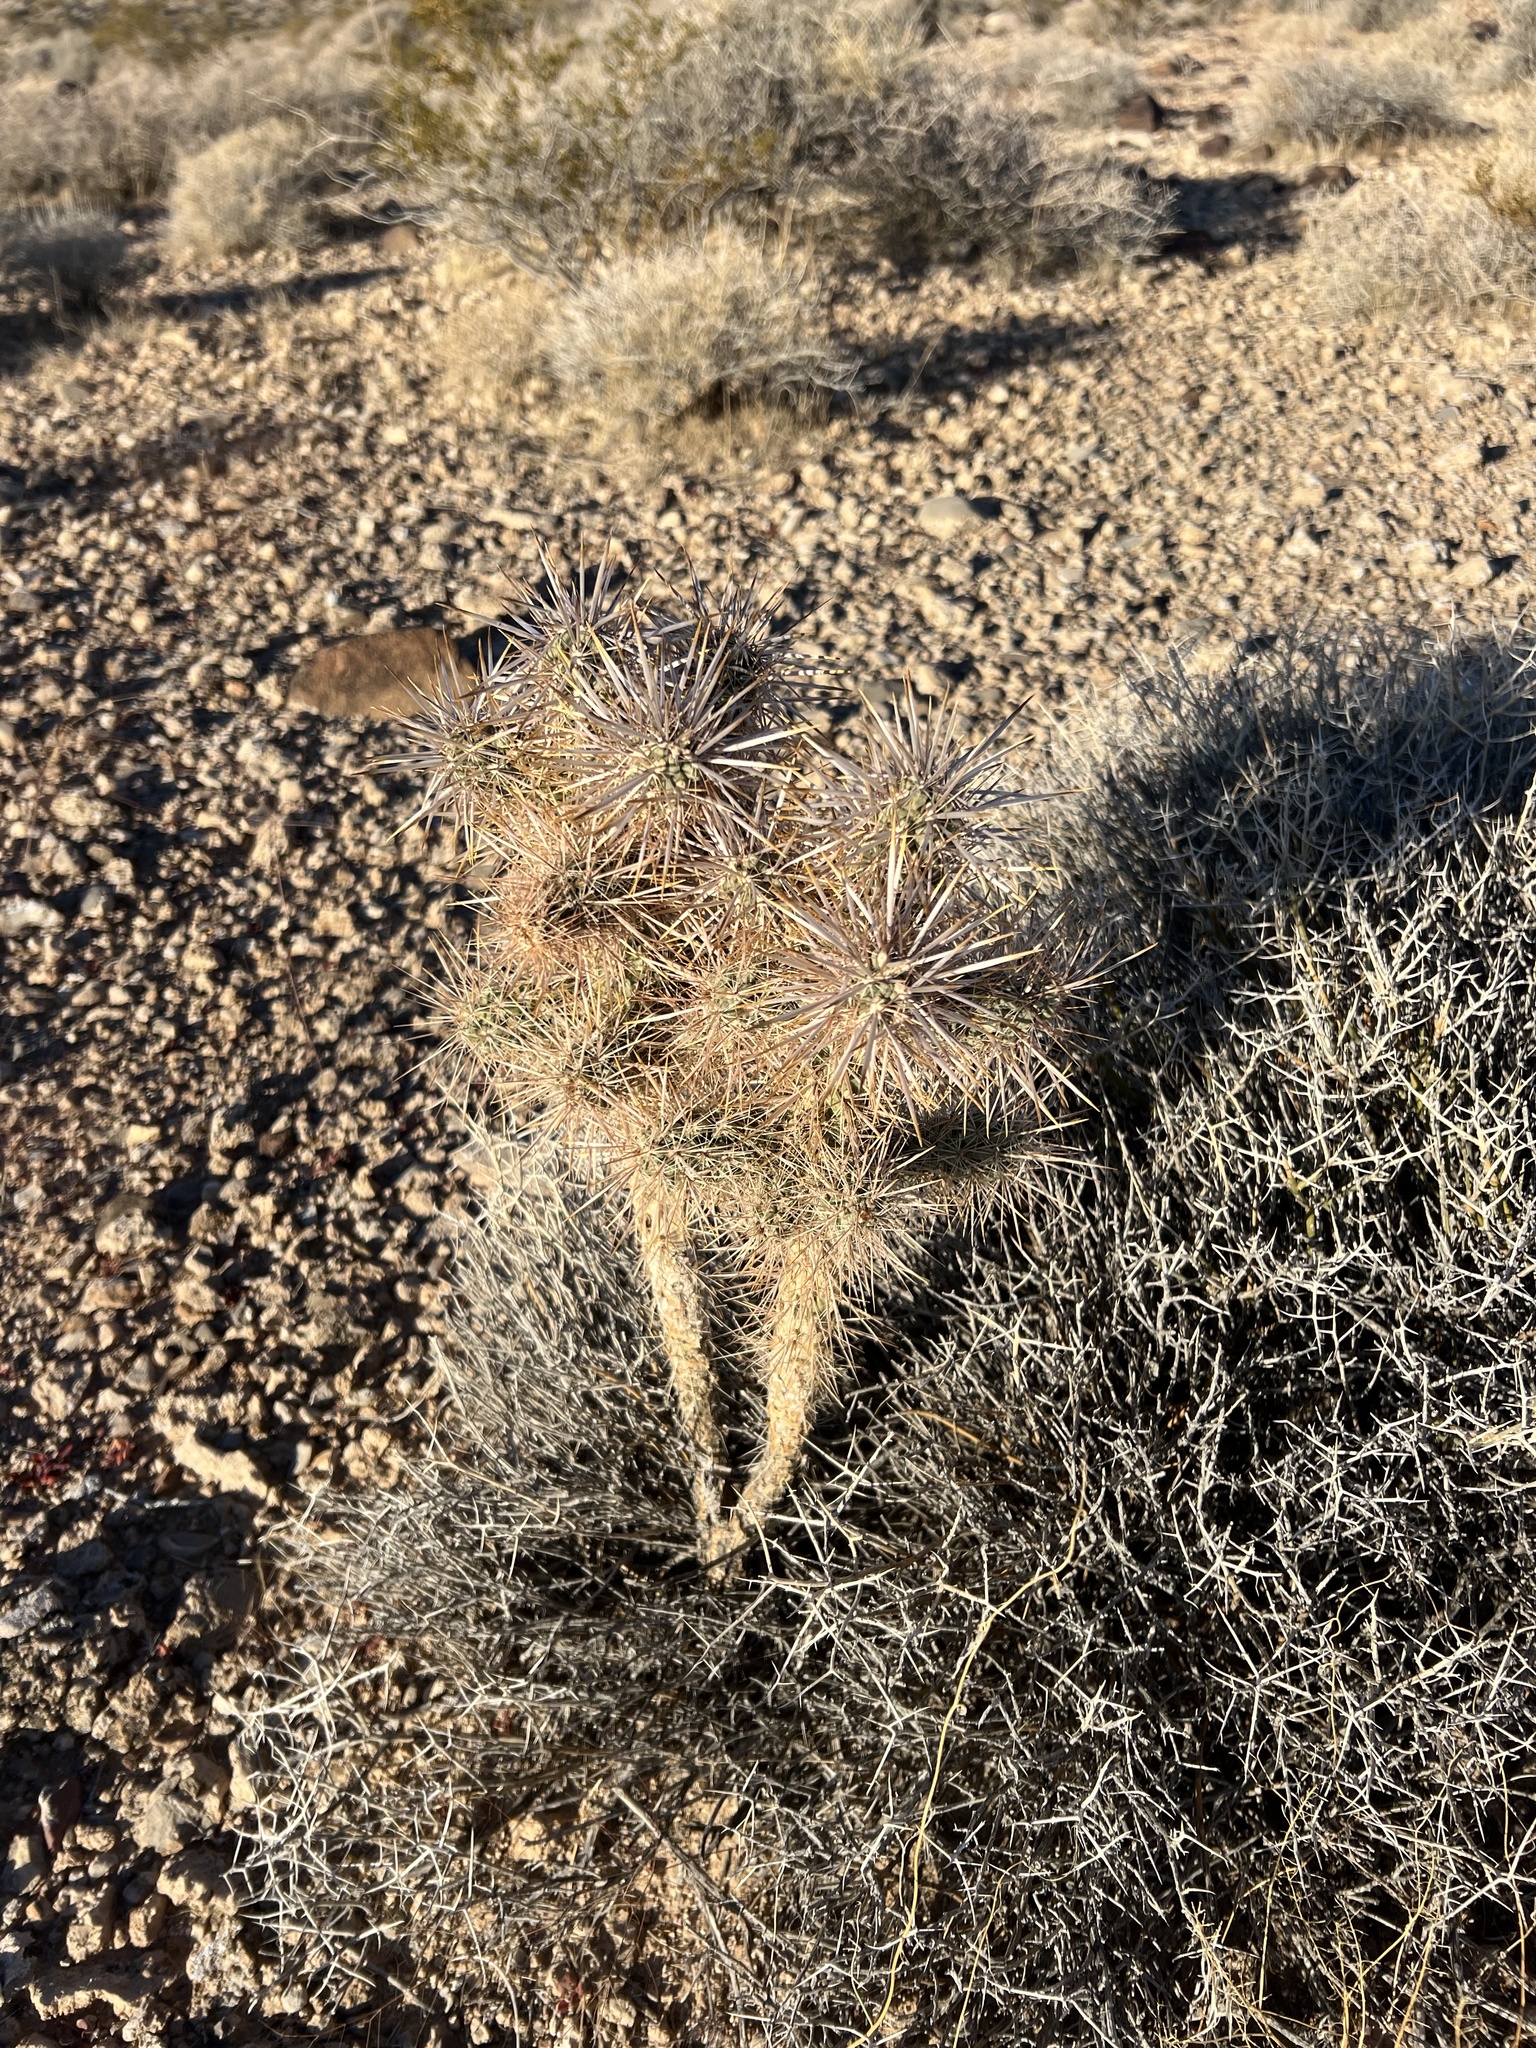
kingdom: Plantae
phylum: Tracheophyta
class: Magnoliopsida
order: Caryophyllales
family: Cactaceae
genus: Cylindropuntia
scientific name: Cylindropuntia echinocarpa
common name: Ground cholla
